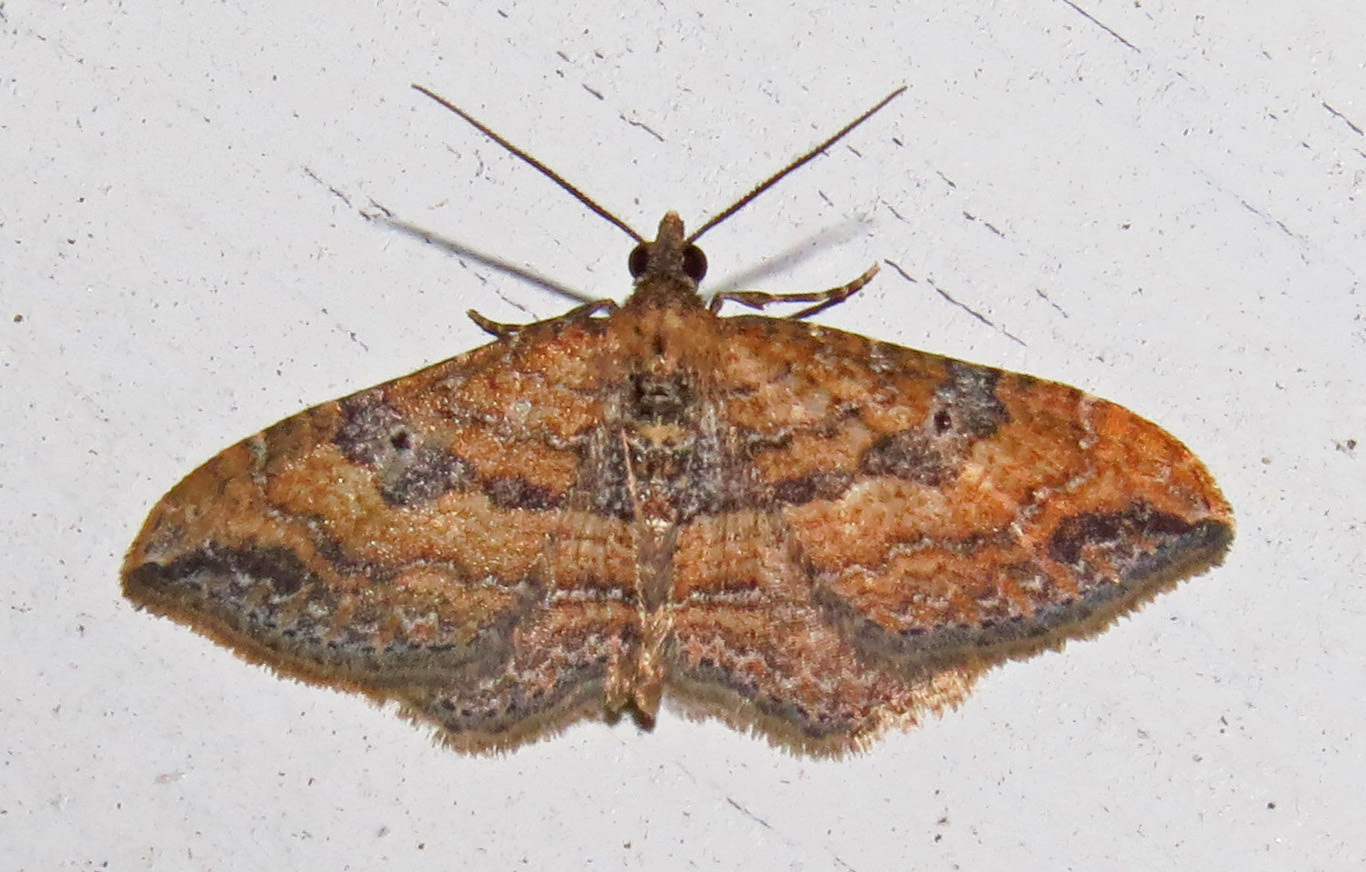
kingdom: Animalia
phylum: Arthropoda
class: Insecta
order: Lepidoptera
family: Geometridae
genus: Orthonama
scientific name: Orthonama obstipata
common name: The gem
